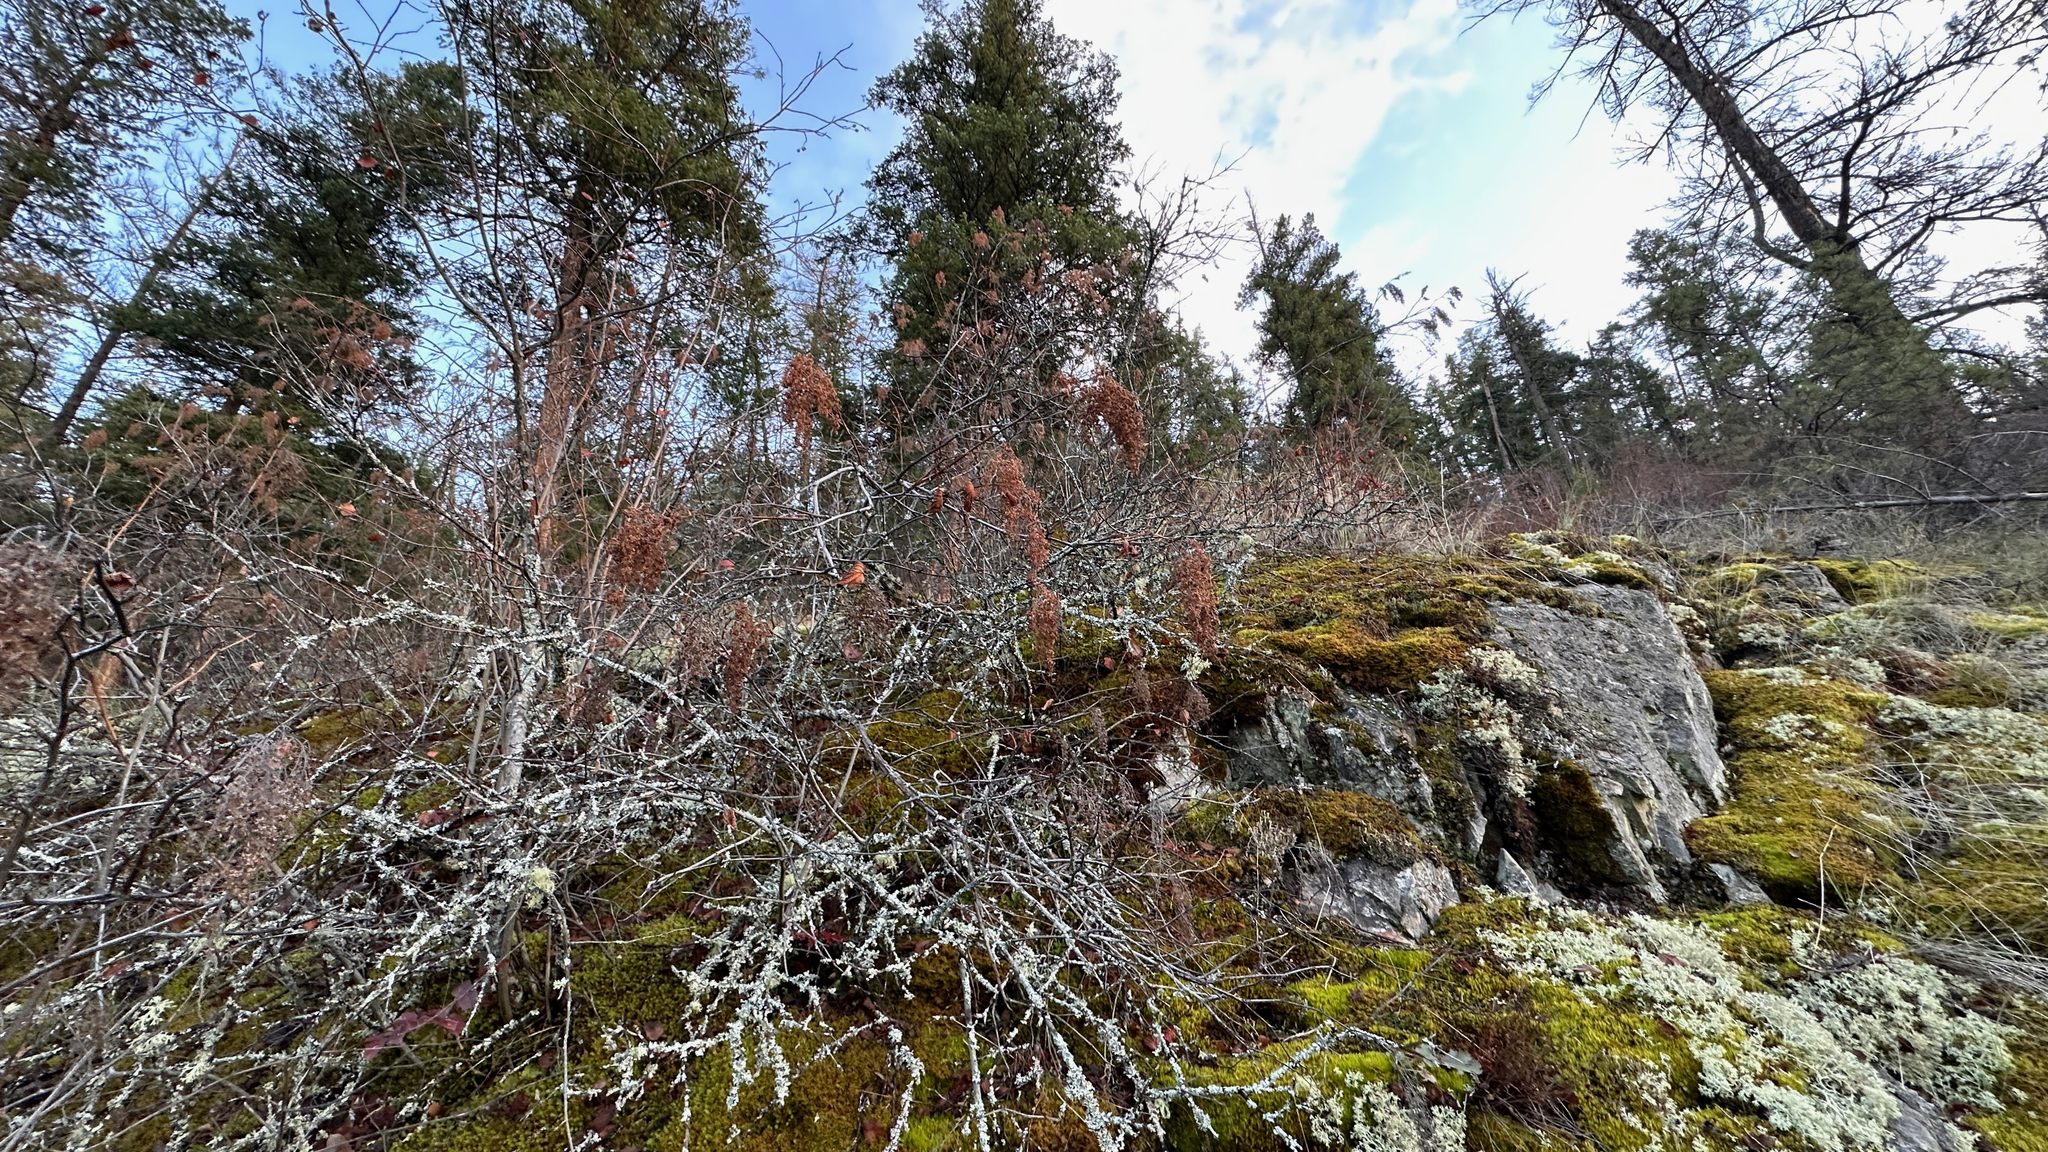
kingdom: Plantae
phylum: Tracheophyta
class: Magnoliopsida
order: Rosales
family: Rosaceae
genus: Holodiscus
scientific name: Holodiscus discolor
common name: Oceanspray
